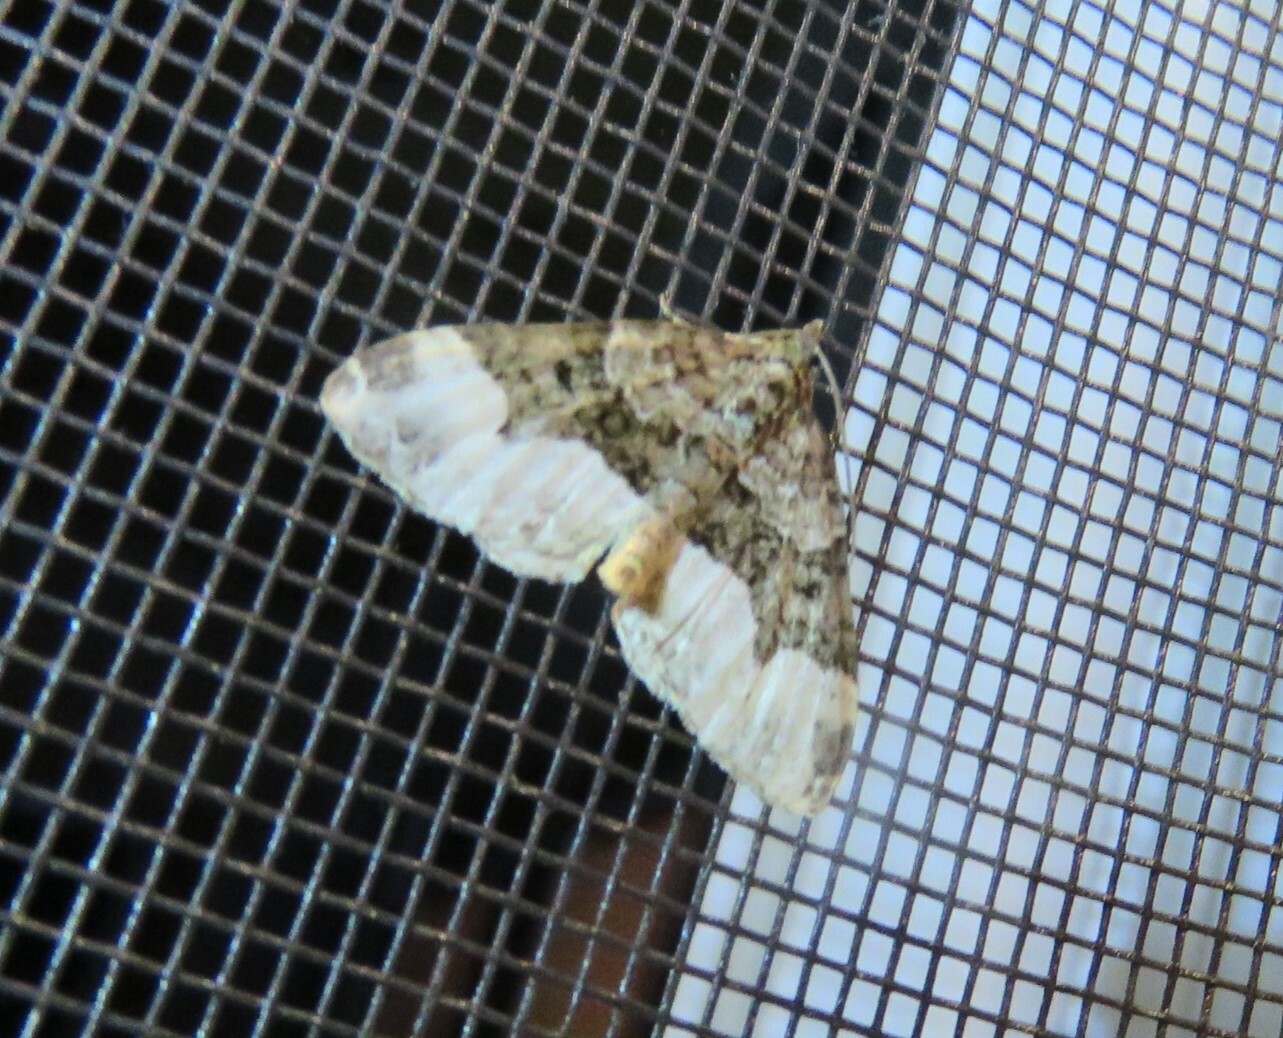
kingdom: Animalia
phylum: Arthropoda
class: Insecta
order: Lepidoptera
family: Geometridae
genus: Euphyia
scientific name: Euphyia intermediata
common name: Sharp-angled carpet
